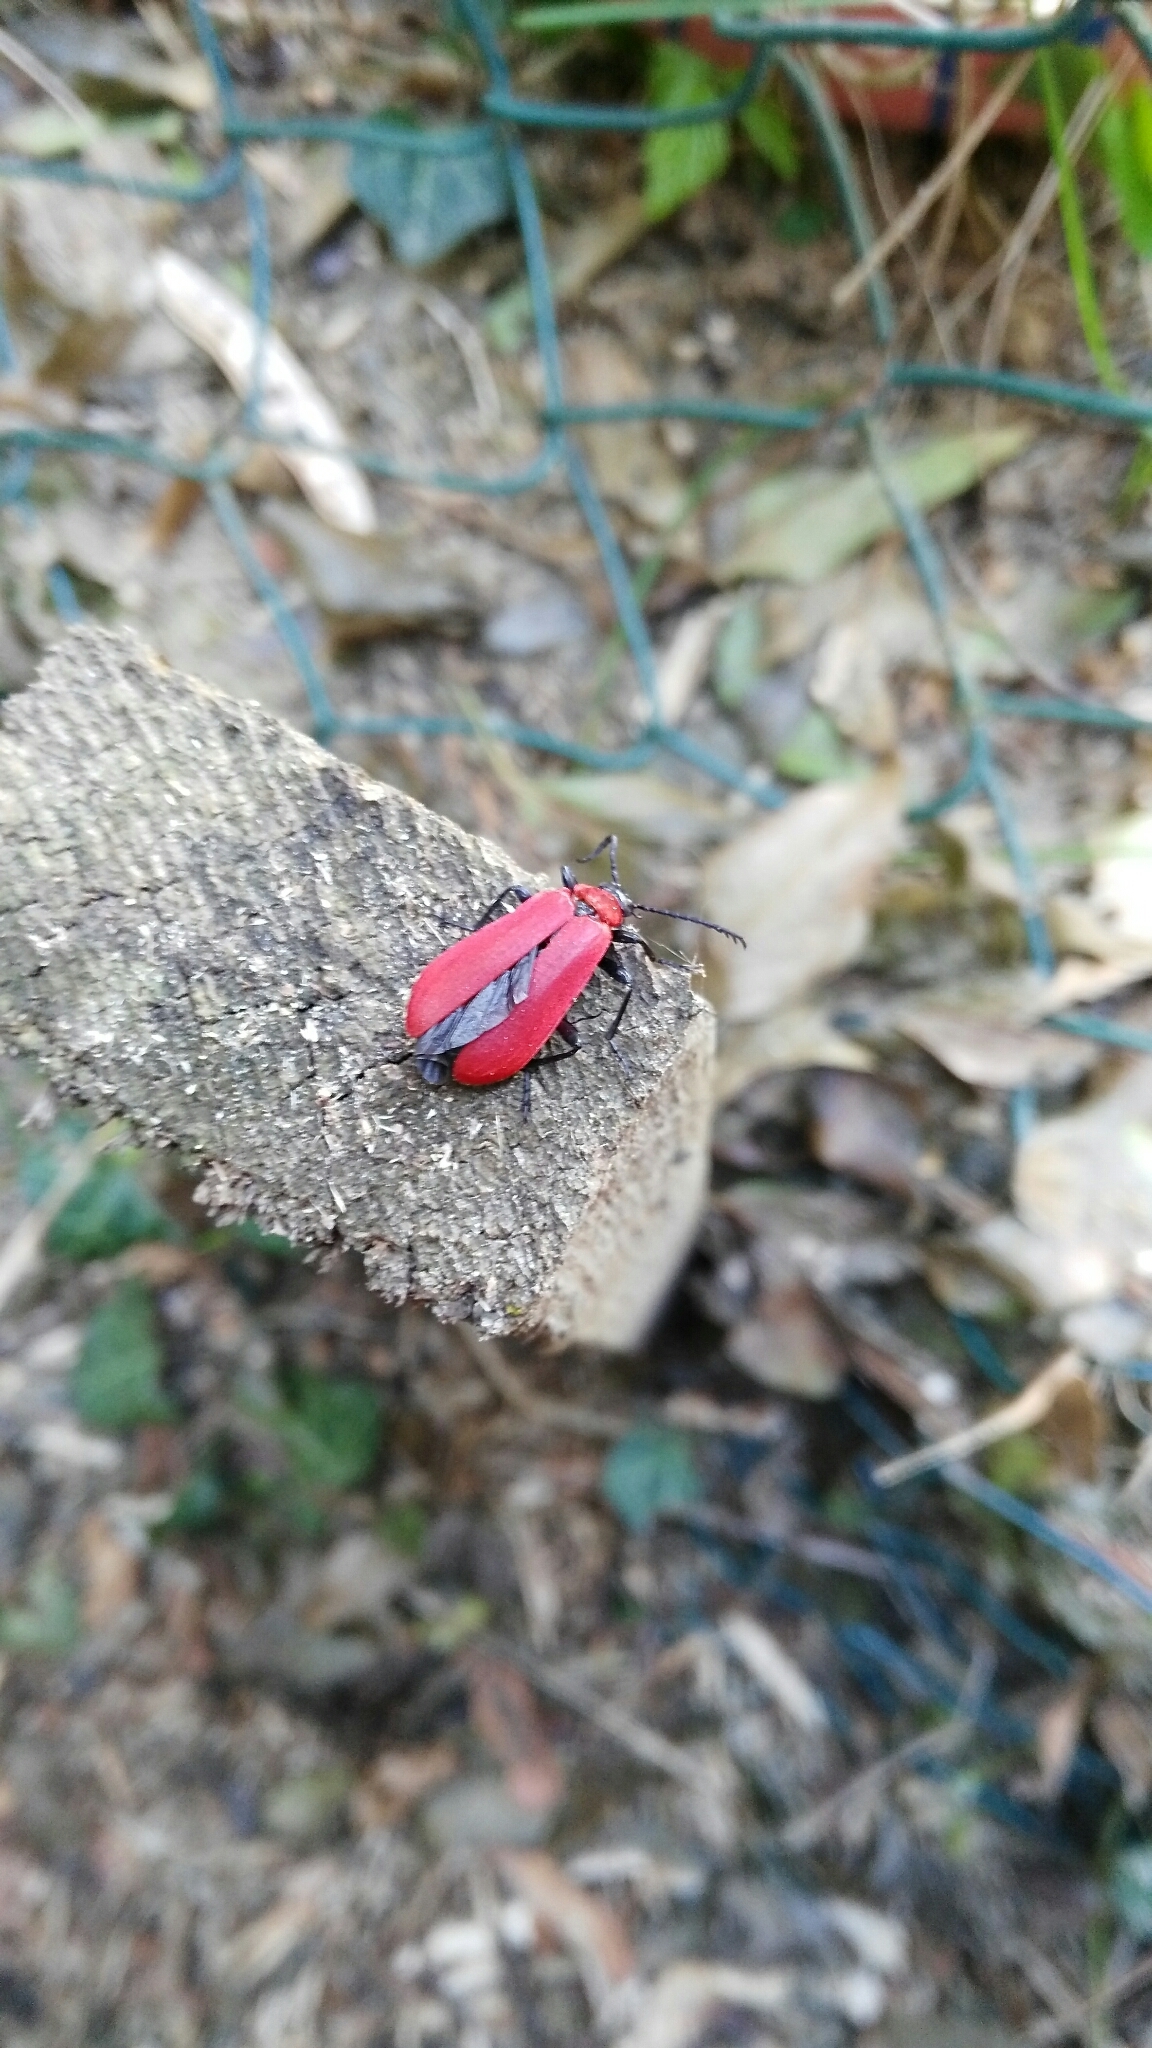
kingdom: Animalia
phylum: Arthropoda
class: Insecta
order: Coleoptera
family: Pyrochroidae
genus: Pyrochroa
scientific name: Pyrochroa coccinea
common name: Black-headed cardinal beetle
